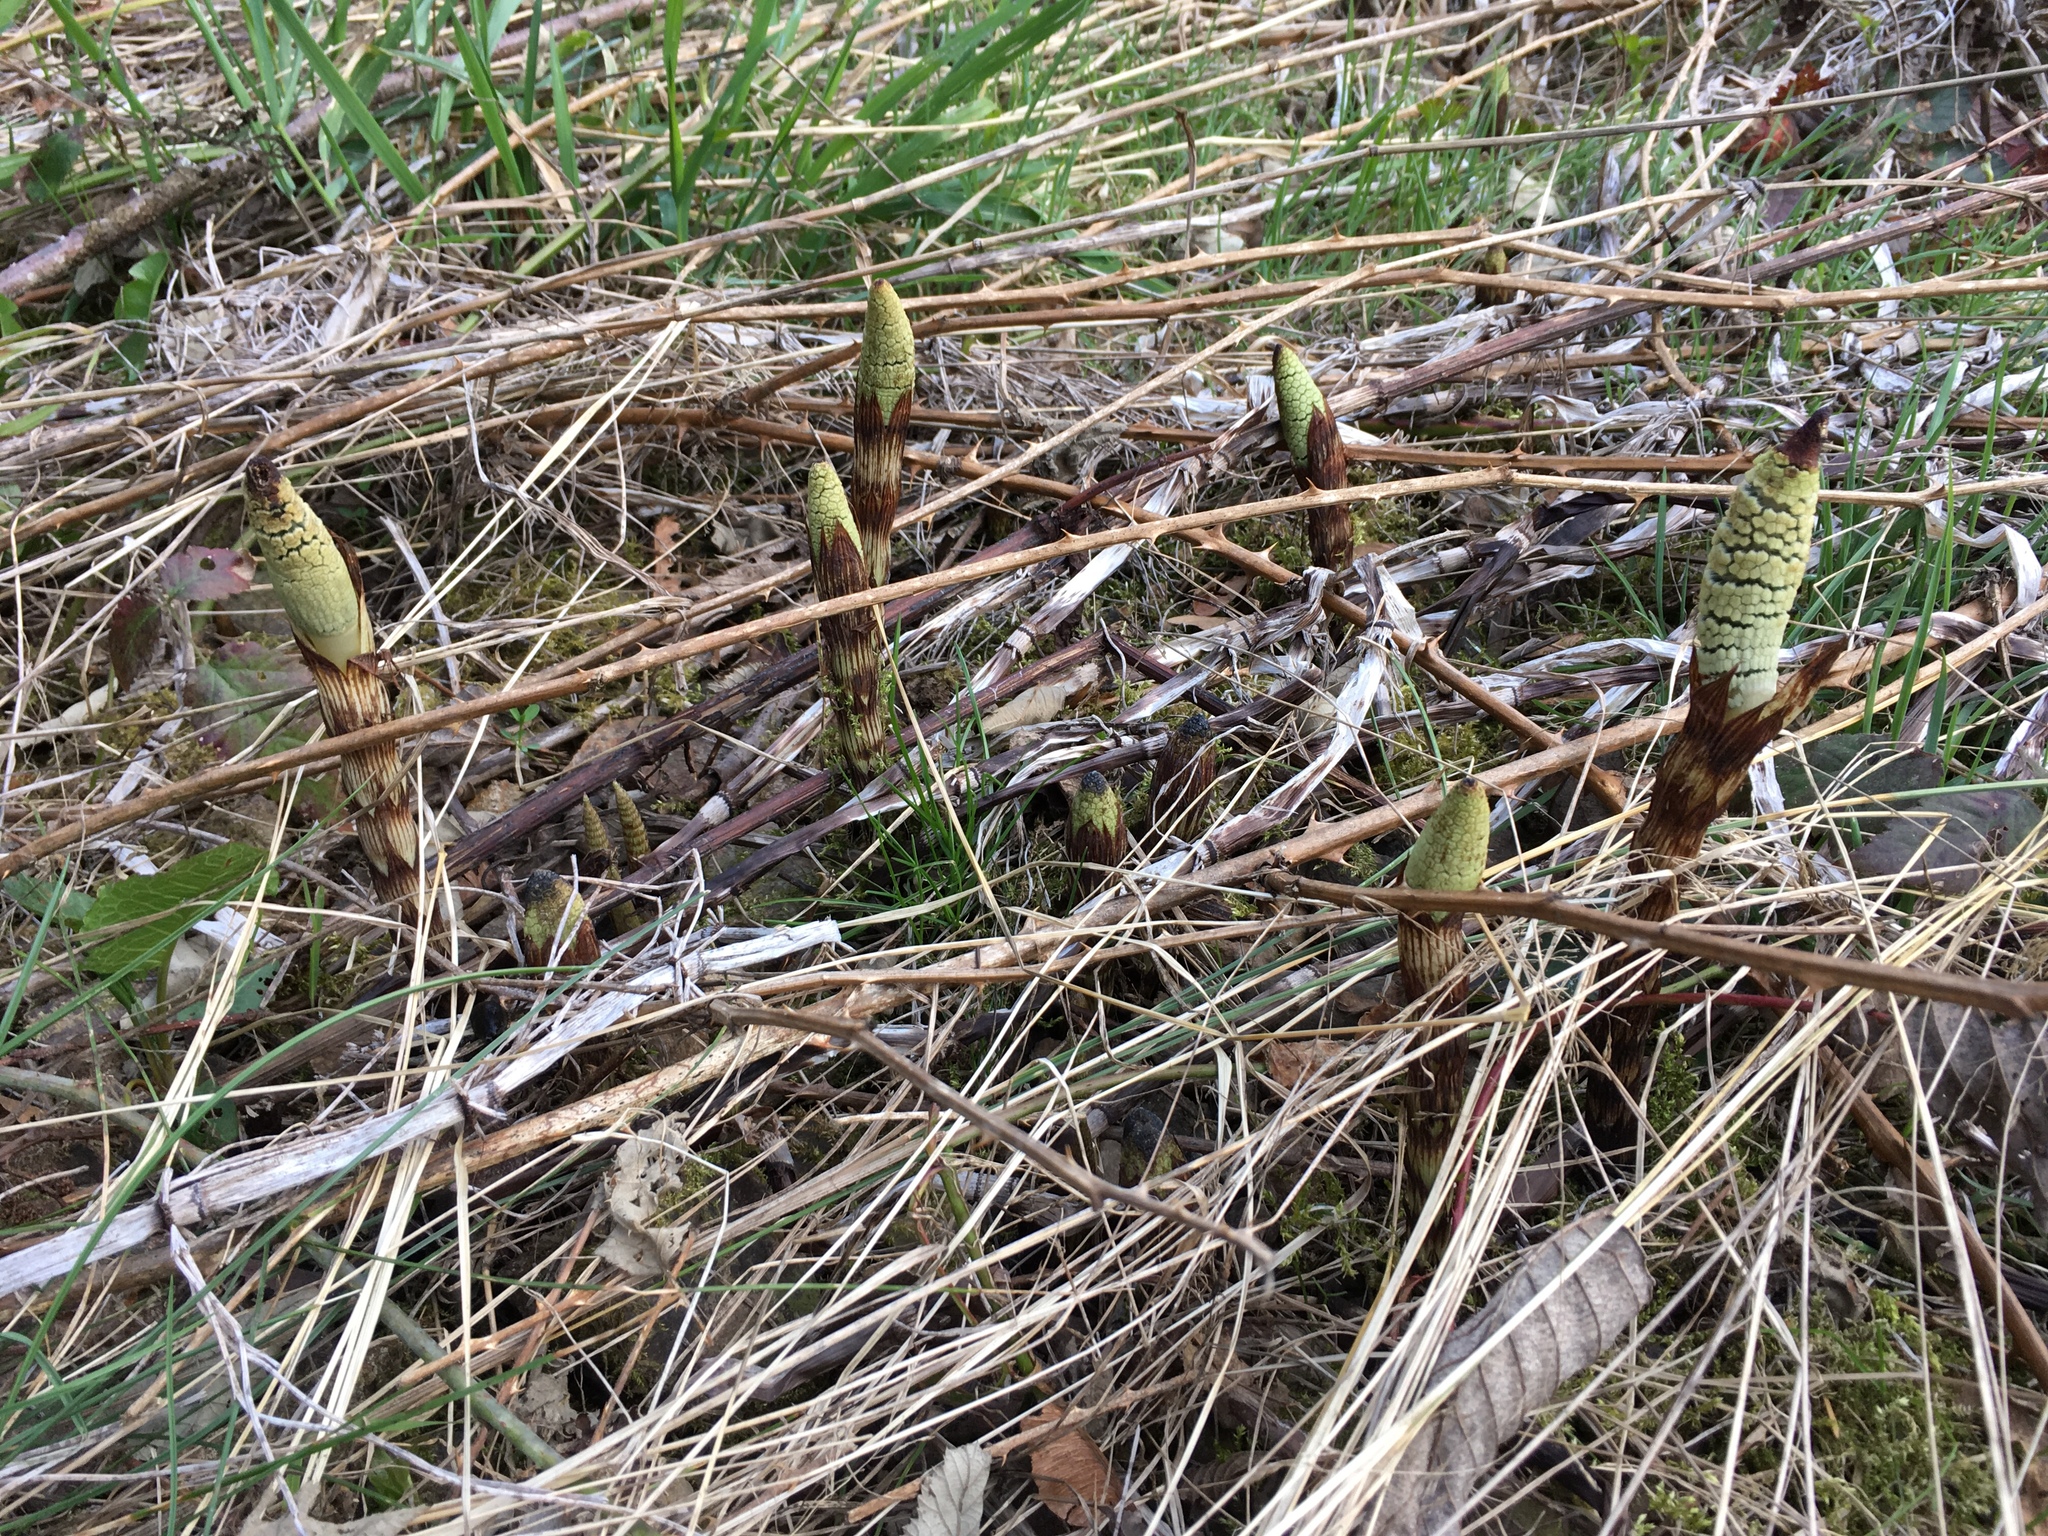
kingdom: Plantae
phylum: Tracheophyta
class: Polypodiopsida
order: Equisetales
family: Equisetaceae
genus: Equisetum
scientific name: Equisetum braunii
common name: Braun's horsetail
